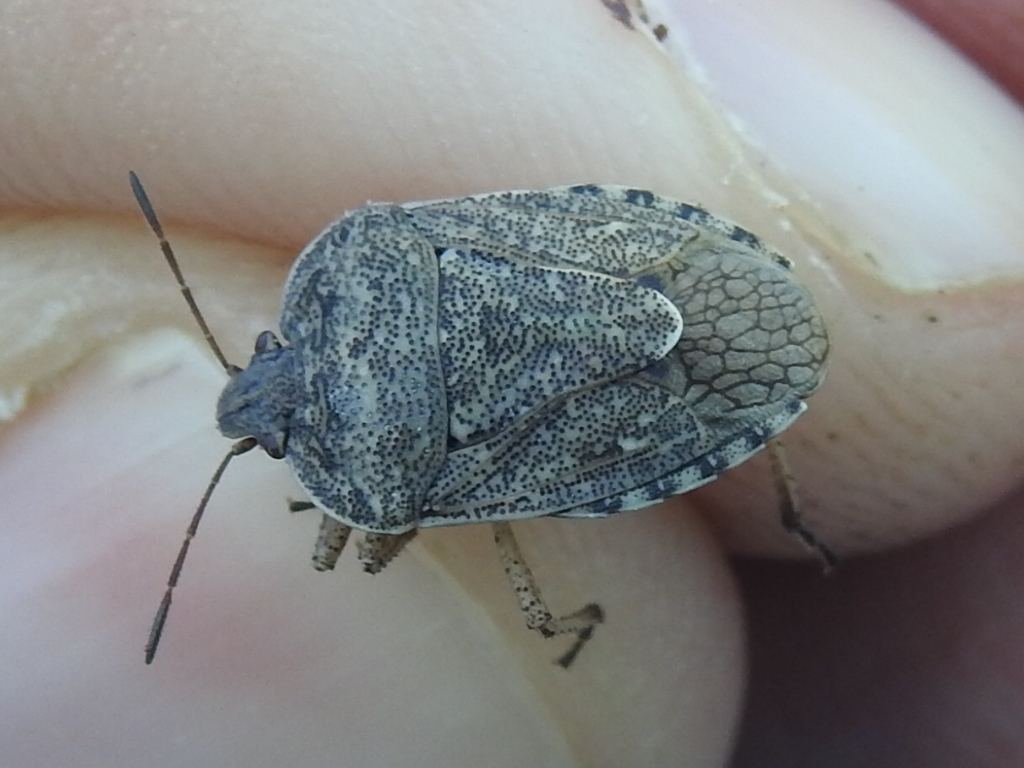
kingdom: Animalia
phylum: Arthropoda
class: Insecta
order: Hemiptera
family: Pentatomidae
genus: Hymenarcys
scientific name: Hymenarcys nervosa
